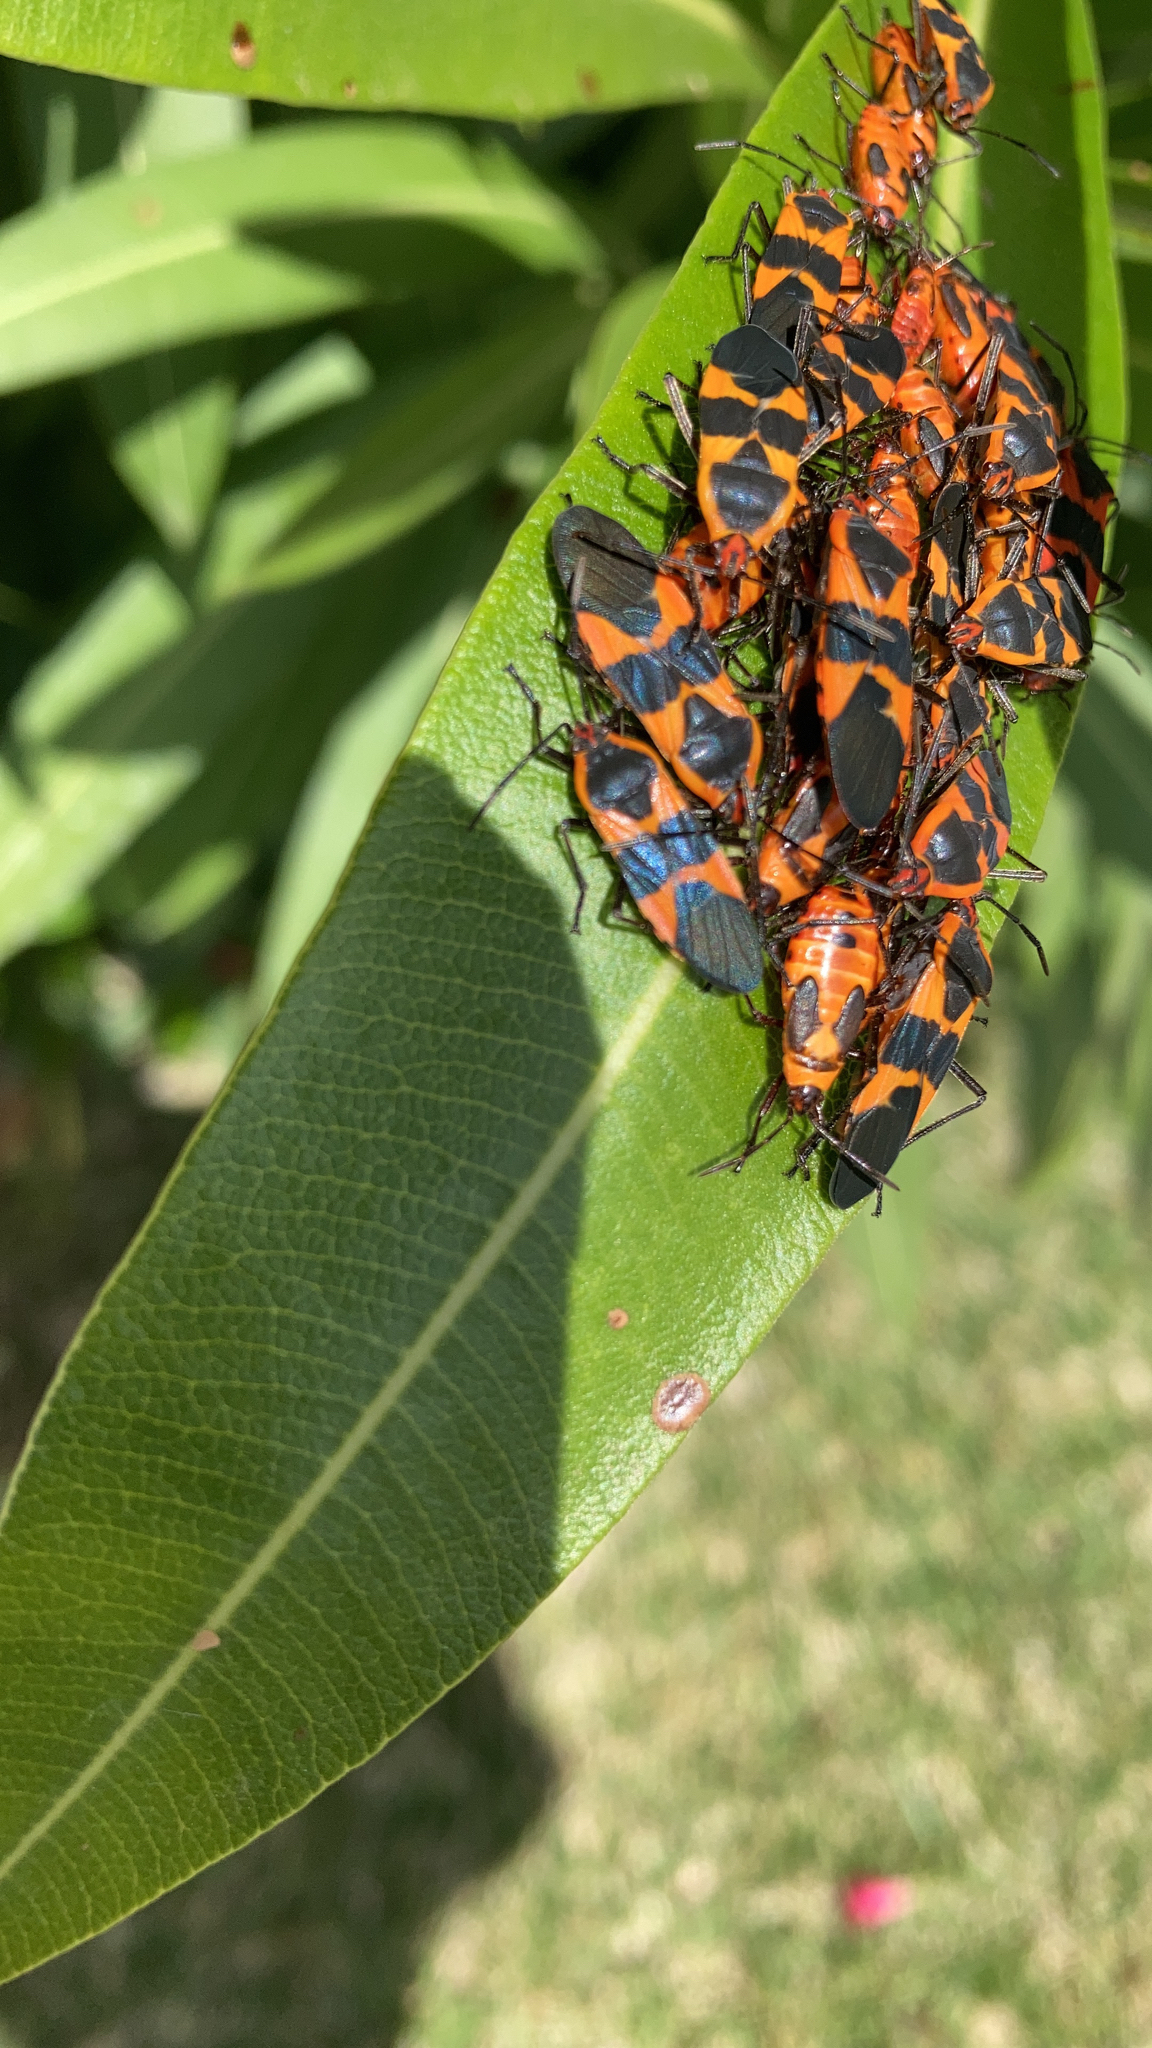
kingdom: Animalia
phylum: Arthropoda
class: Insecta
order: Hemiptera
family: Lygaeidae
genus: Oncopeltus
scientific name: Oncopeltus fasciatus
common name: Large milkweed bug
